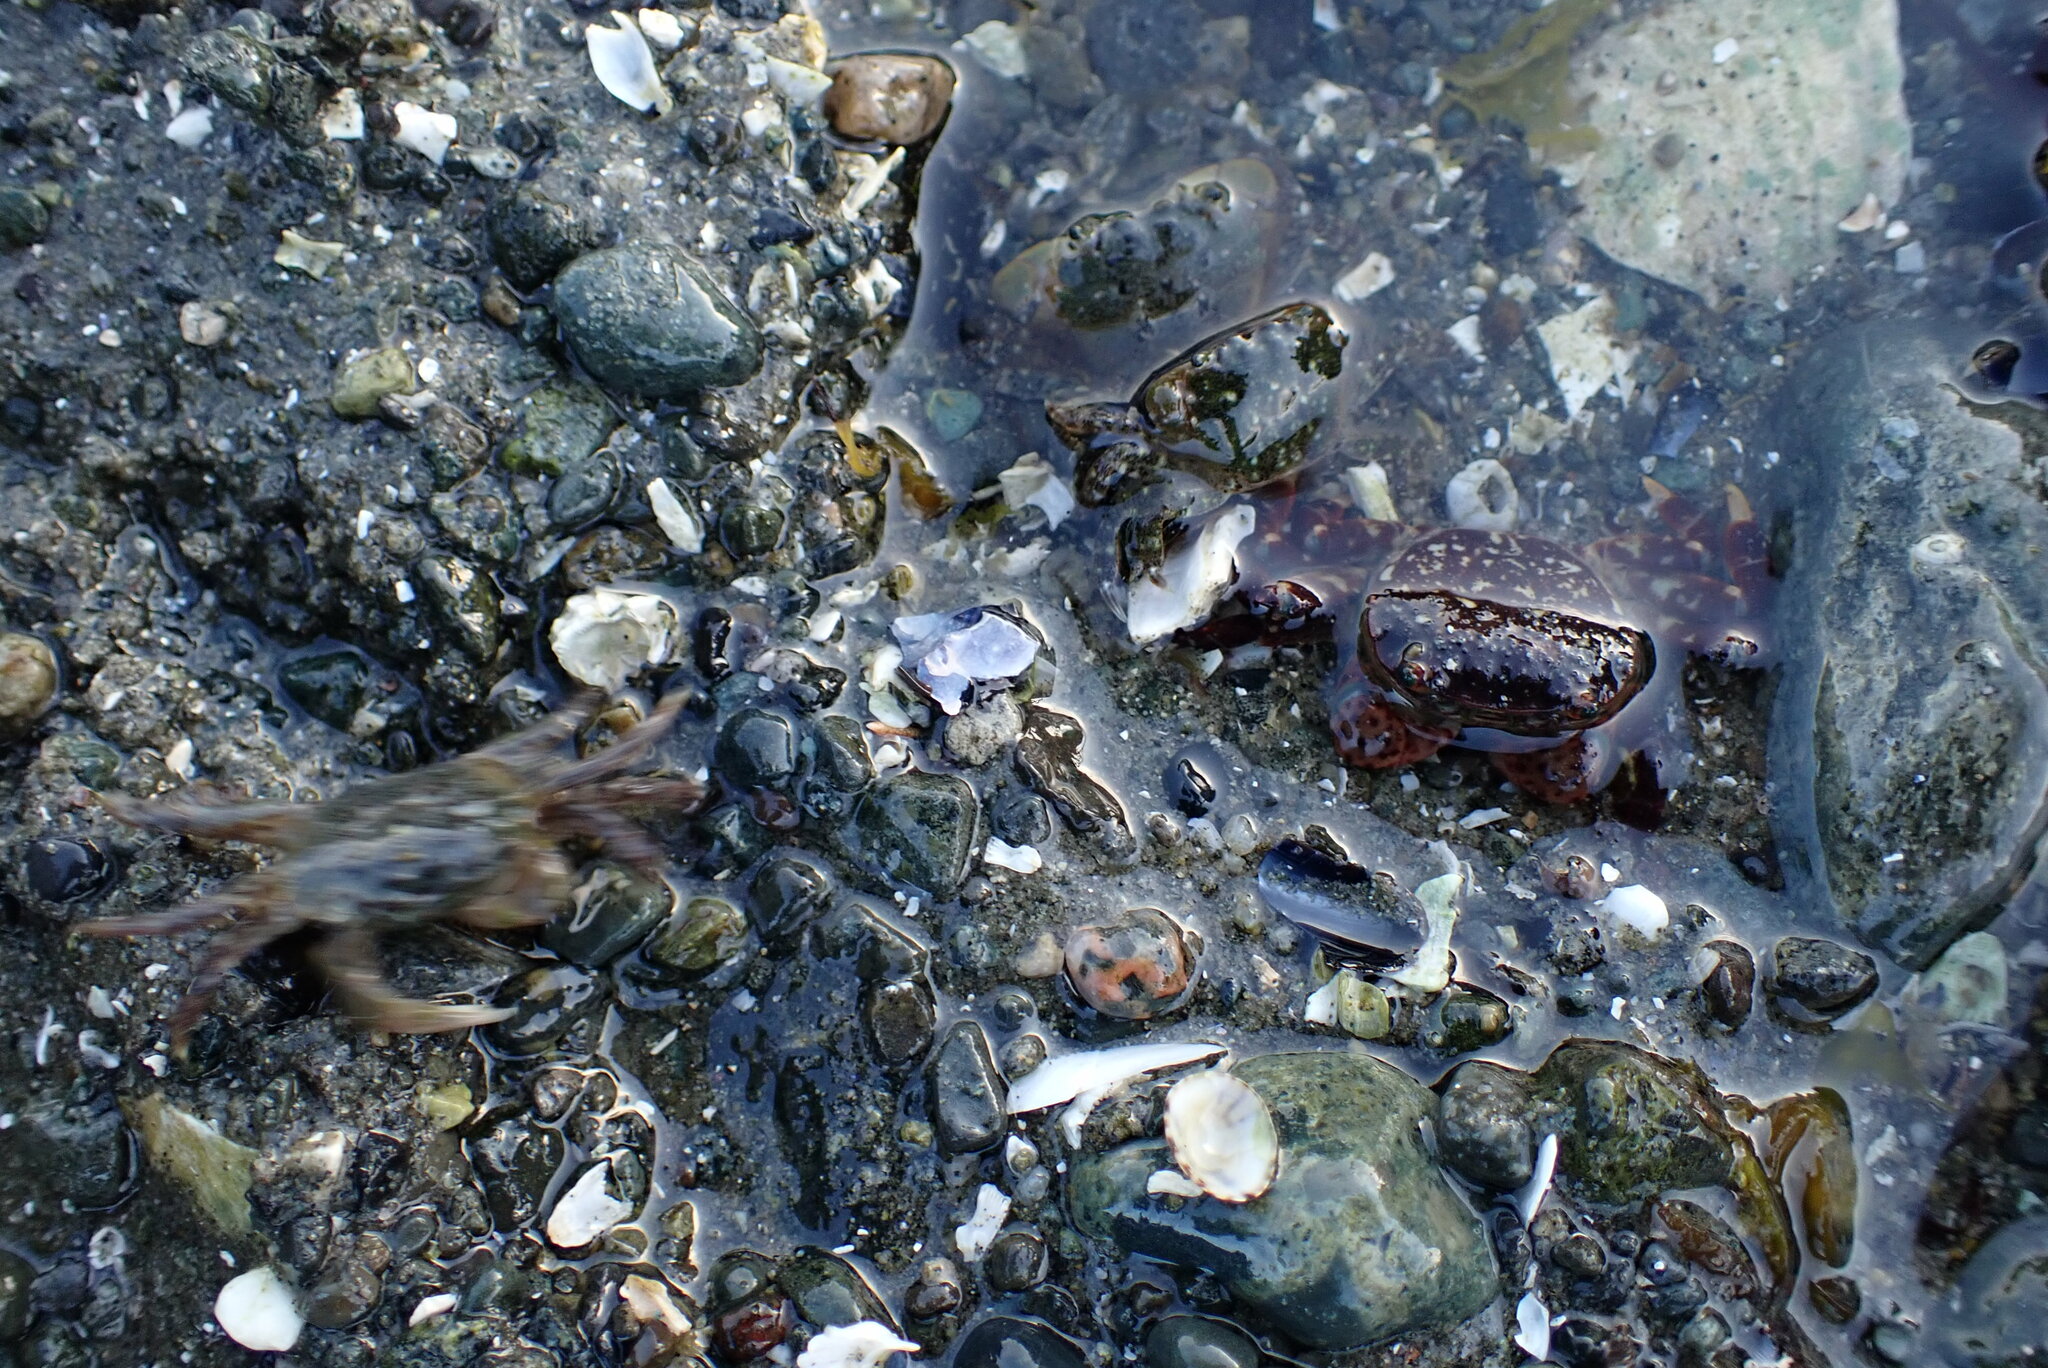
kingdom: Animalia
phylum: Arthropoda
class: Malacostraca
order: Decapoda
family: Varunidae
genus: Hemigrapsus
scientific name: Hemigrapsus nudus
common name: Purple shore crab
